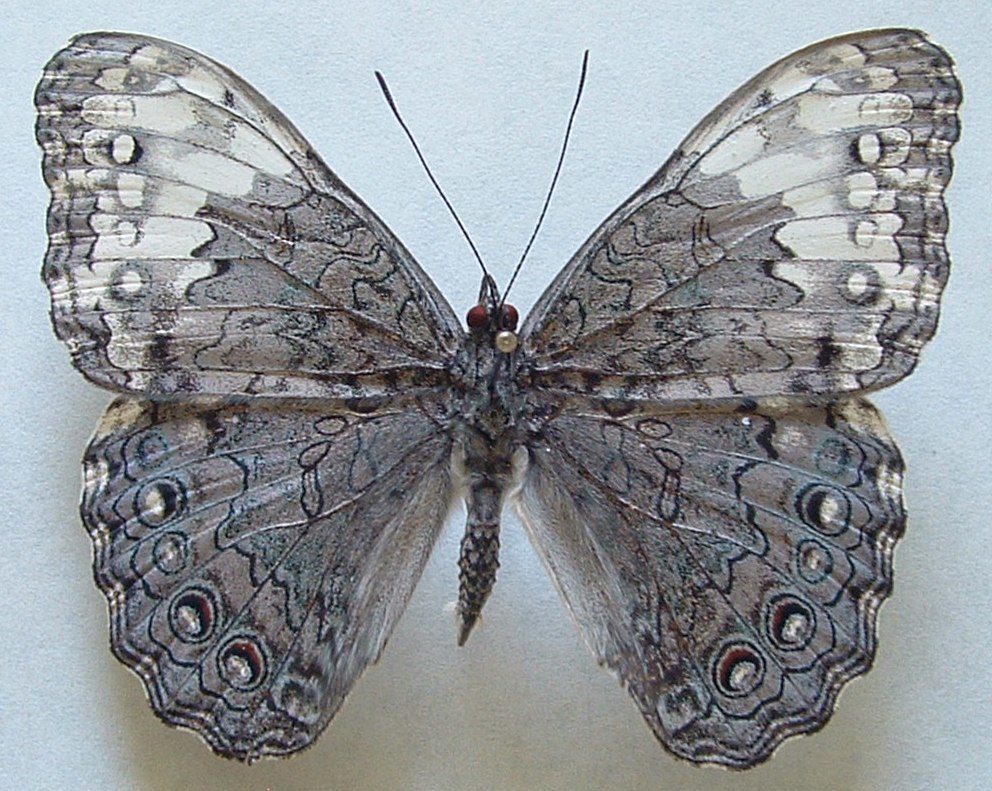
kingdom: Animalia
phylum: Arthropoda
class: Insecta
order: Lepidoptera
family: Nymphalidae
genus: Hamadryas
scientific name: Hamadryas glauconome
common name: Glaucous cracker
